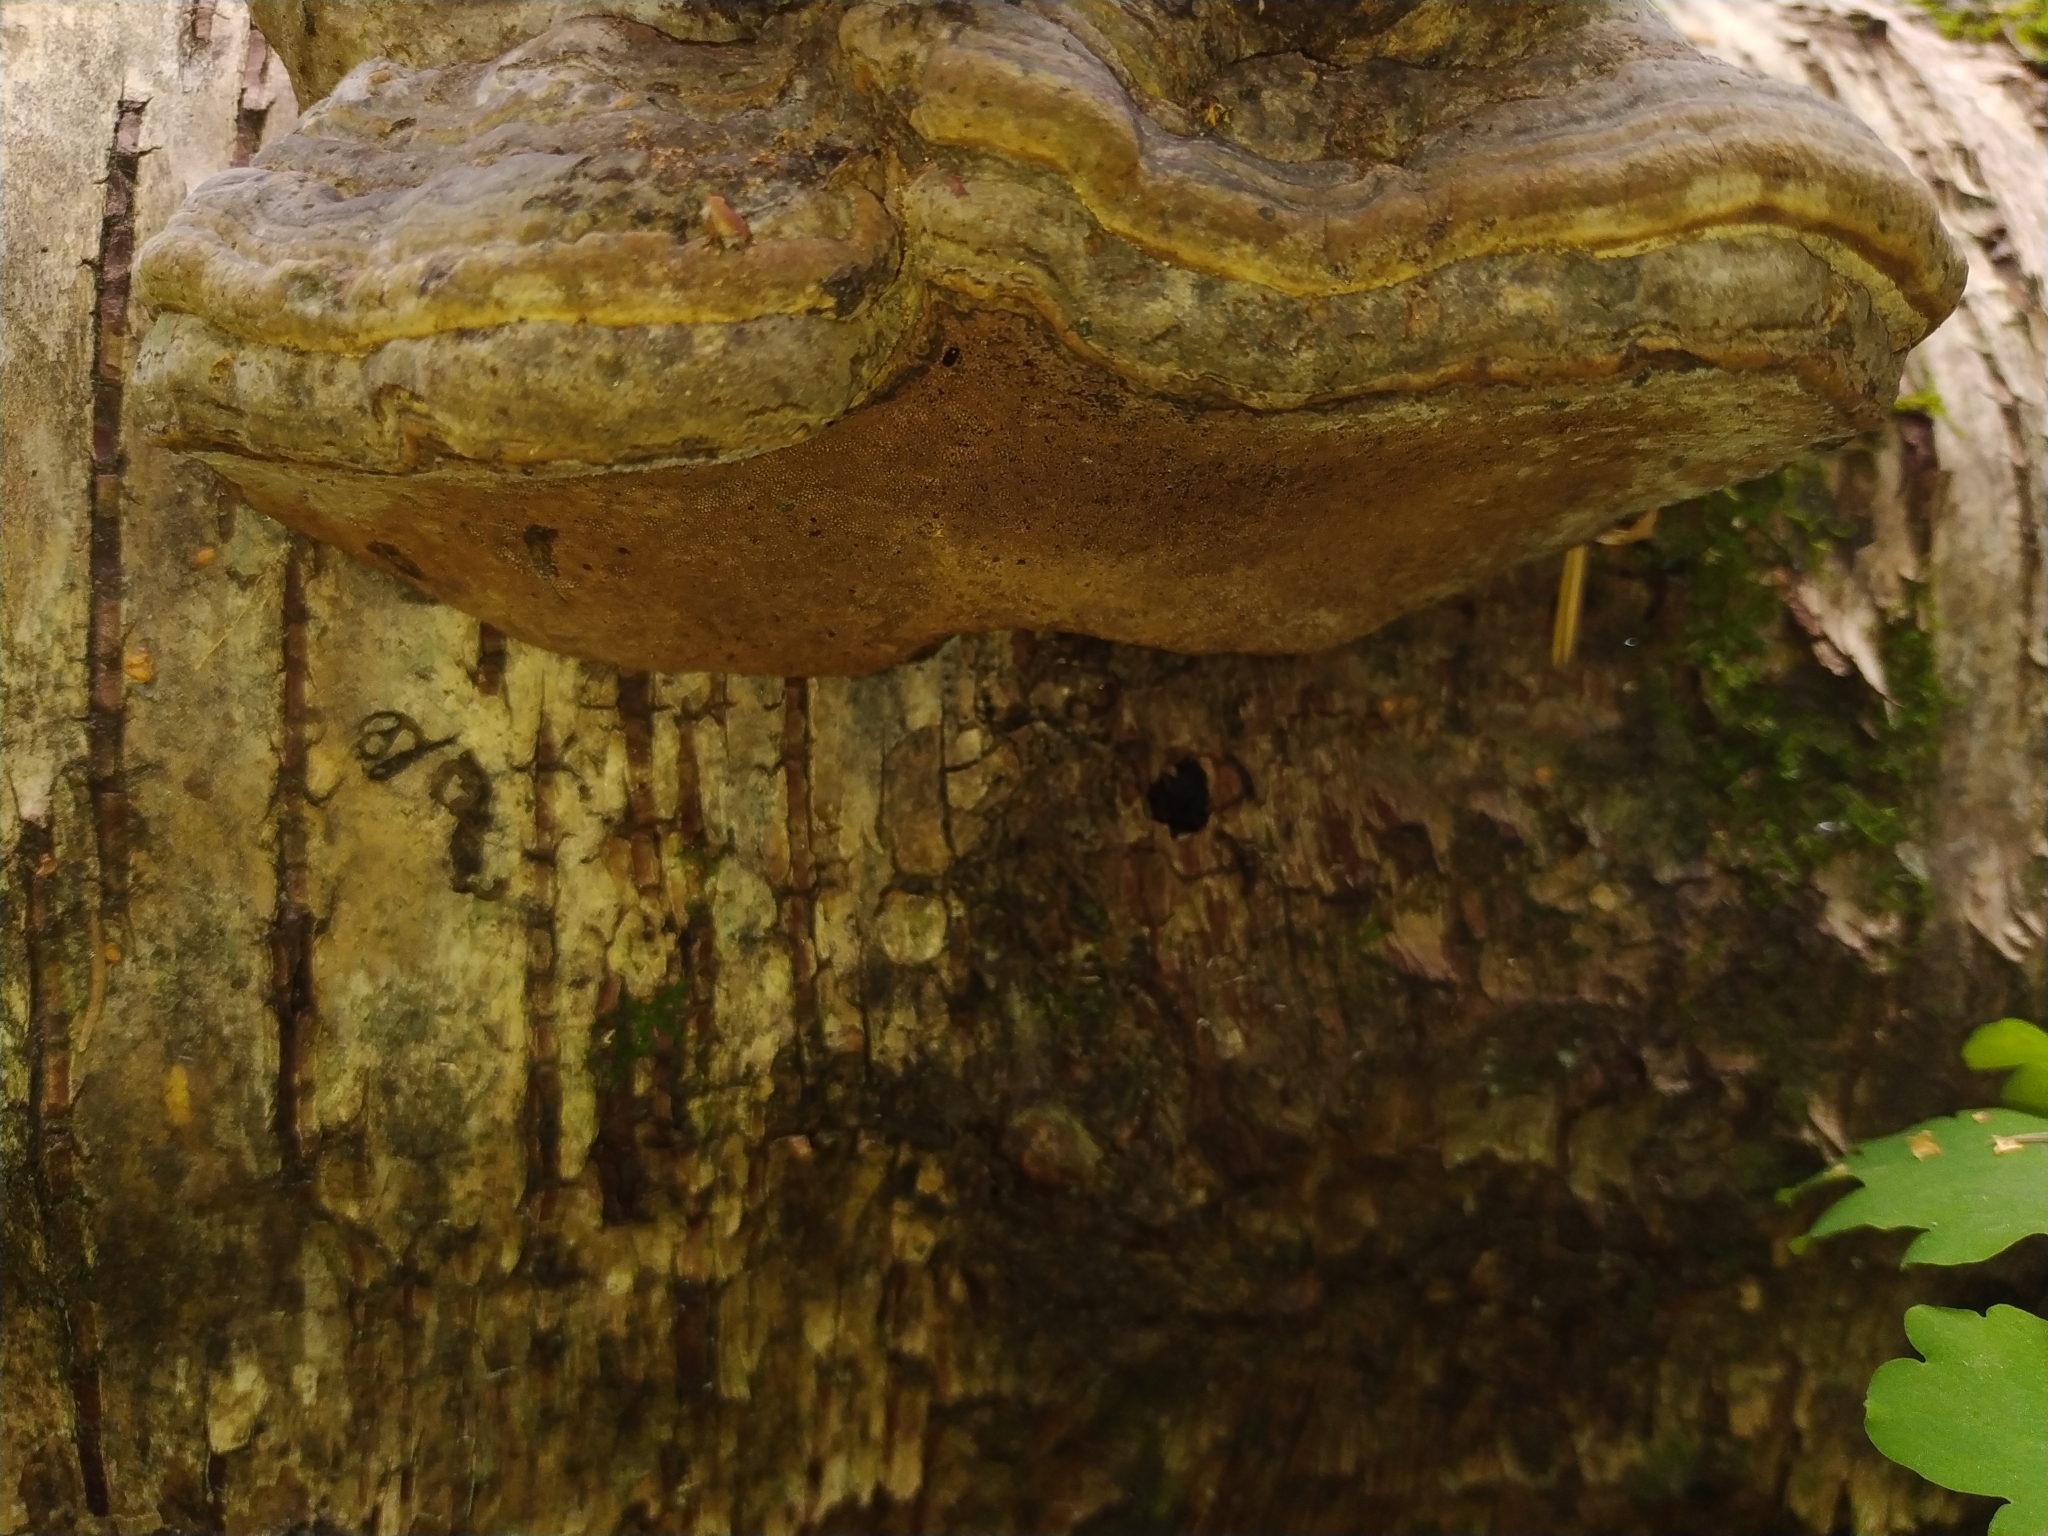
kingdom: Fungi
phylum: Basidiomycota
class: Agaricomycetes
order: Polyporales
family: Polyporaceae
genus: Fomes
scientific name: Fomes fomentarius
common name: Hoof fungus
